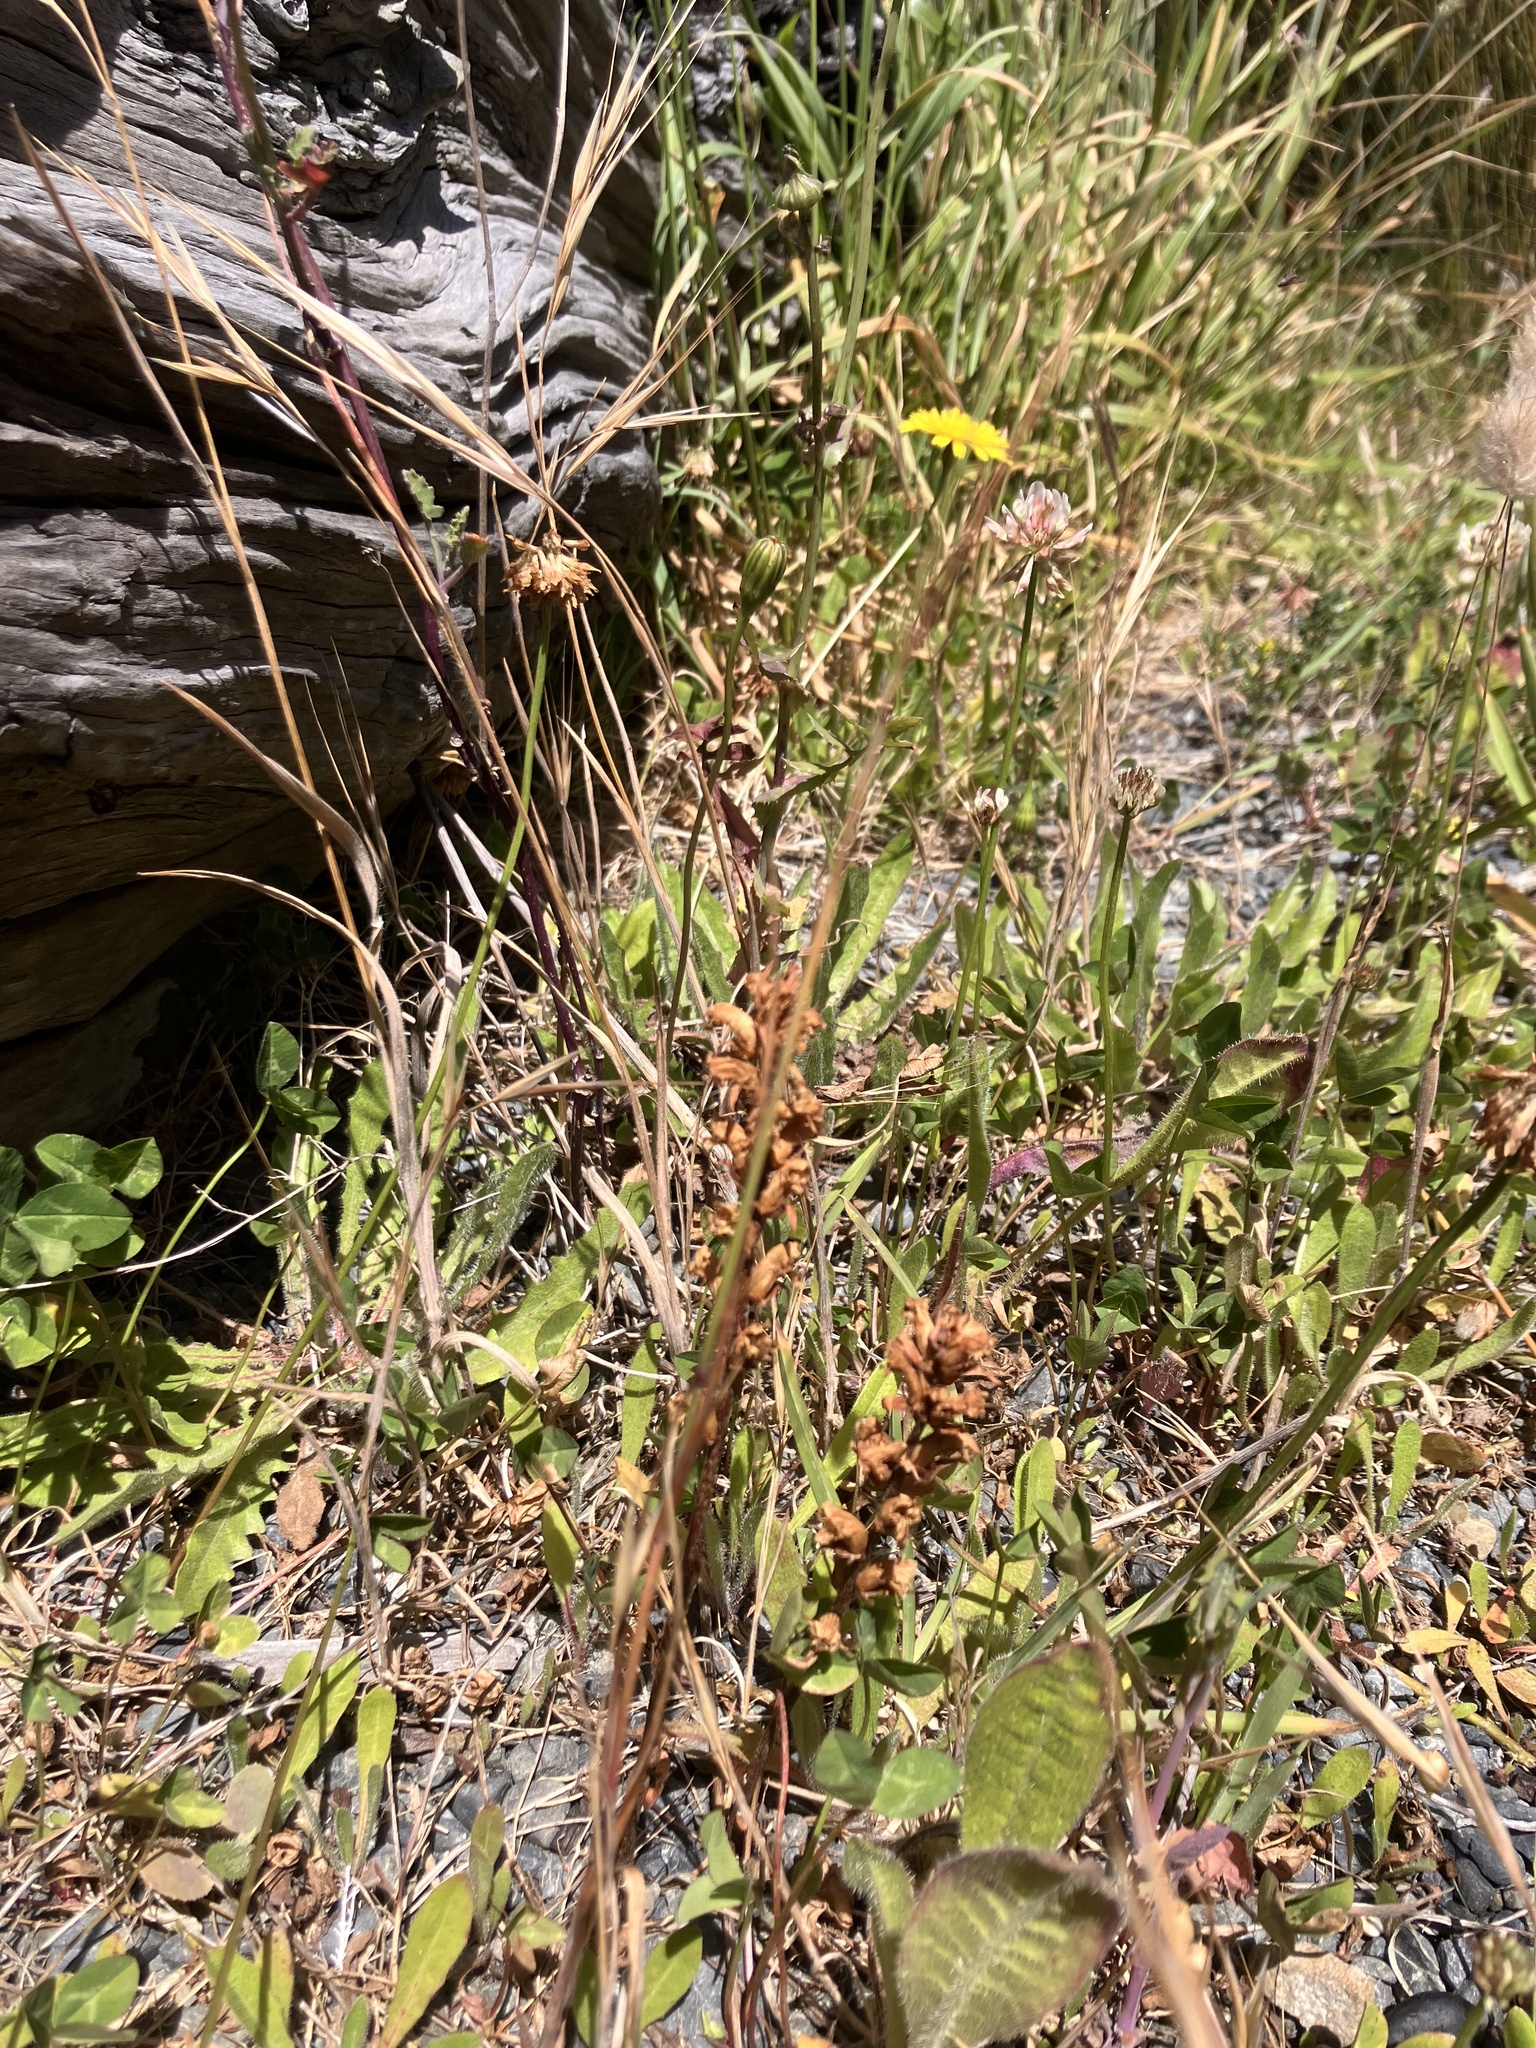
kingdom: Plantae
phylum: Tracheophyta
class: Magnoliopsida
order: Lamiales
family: Orobanchaceae
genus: Orobanche
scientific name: Orobanche minor
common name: Common broomrape
